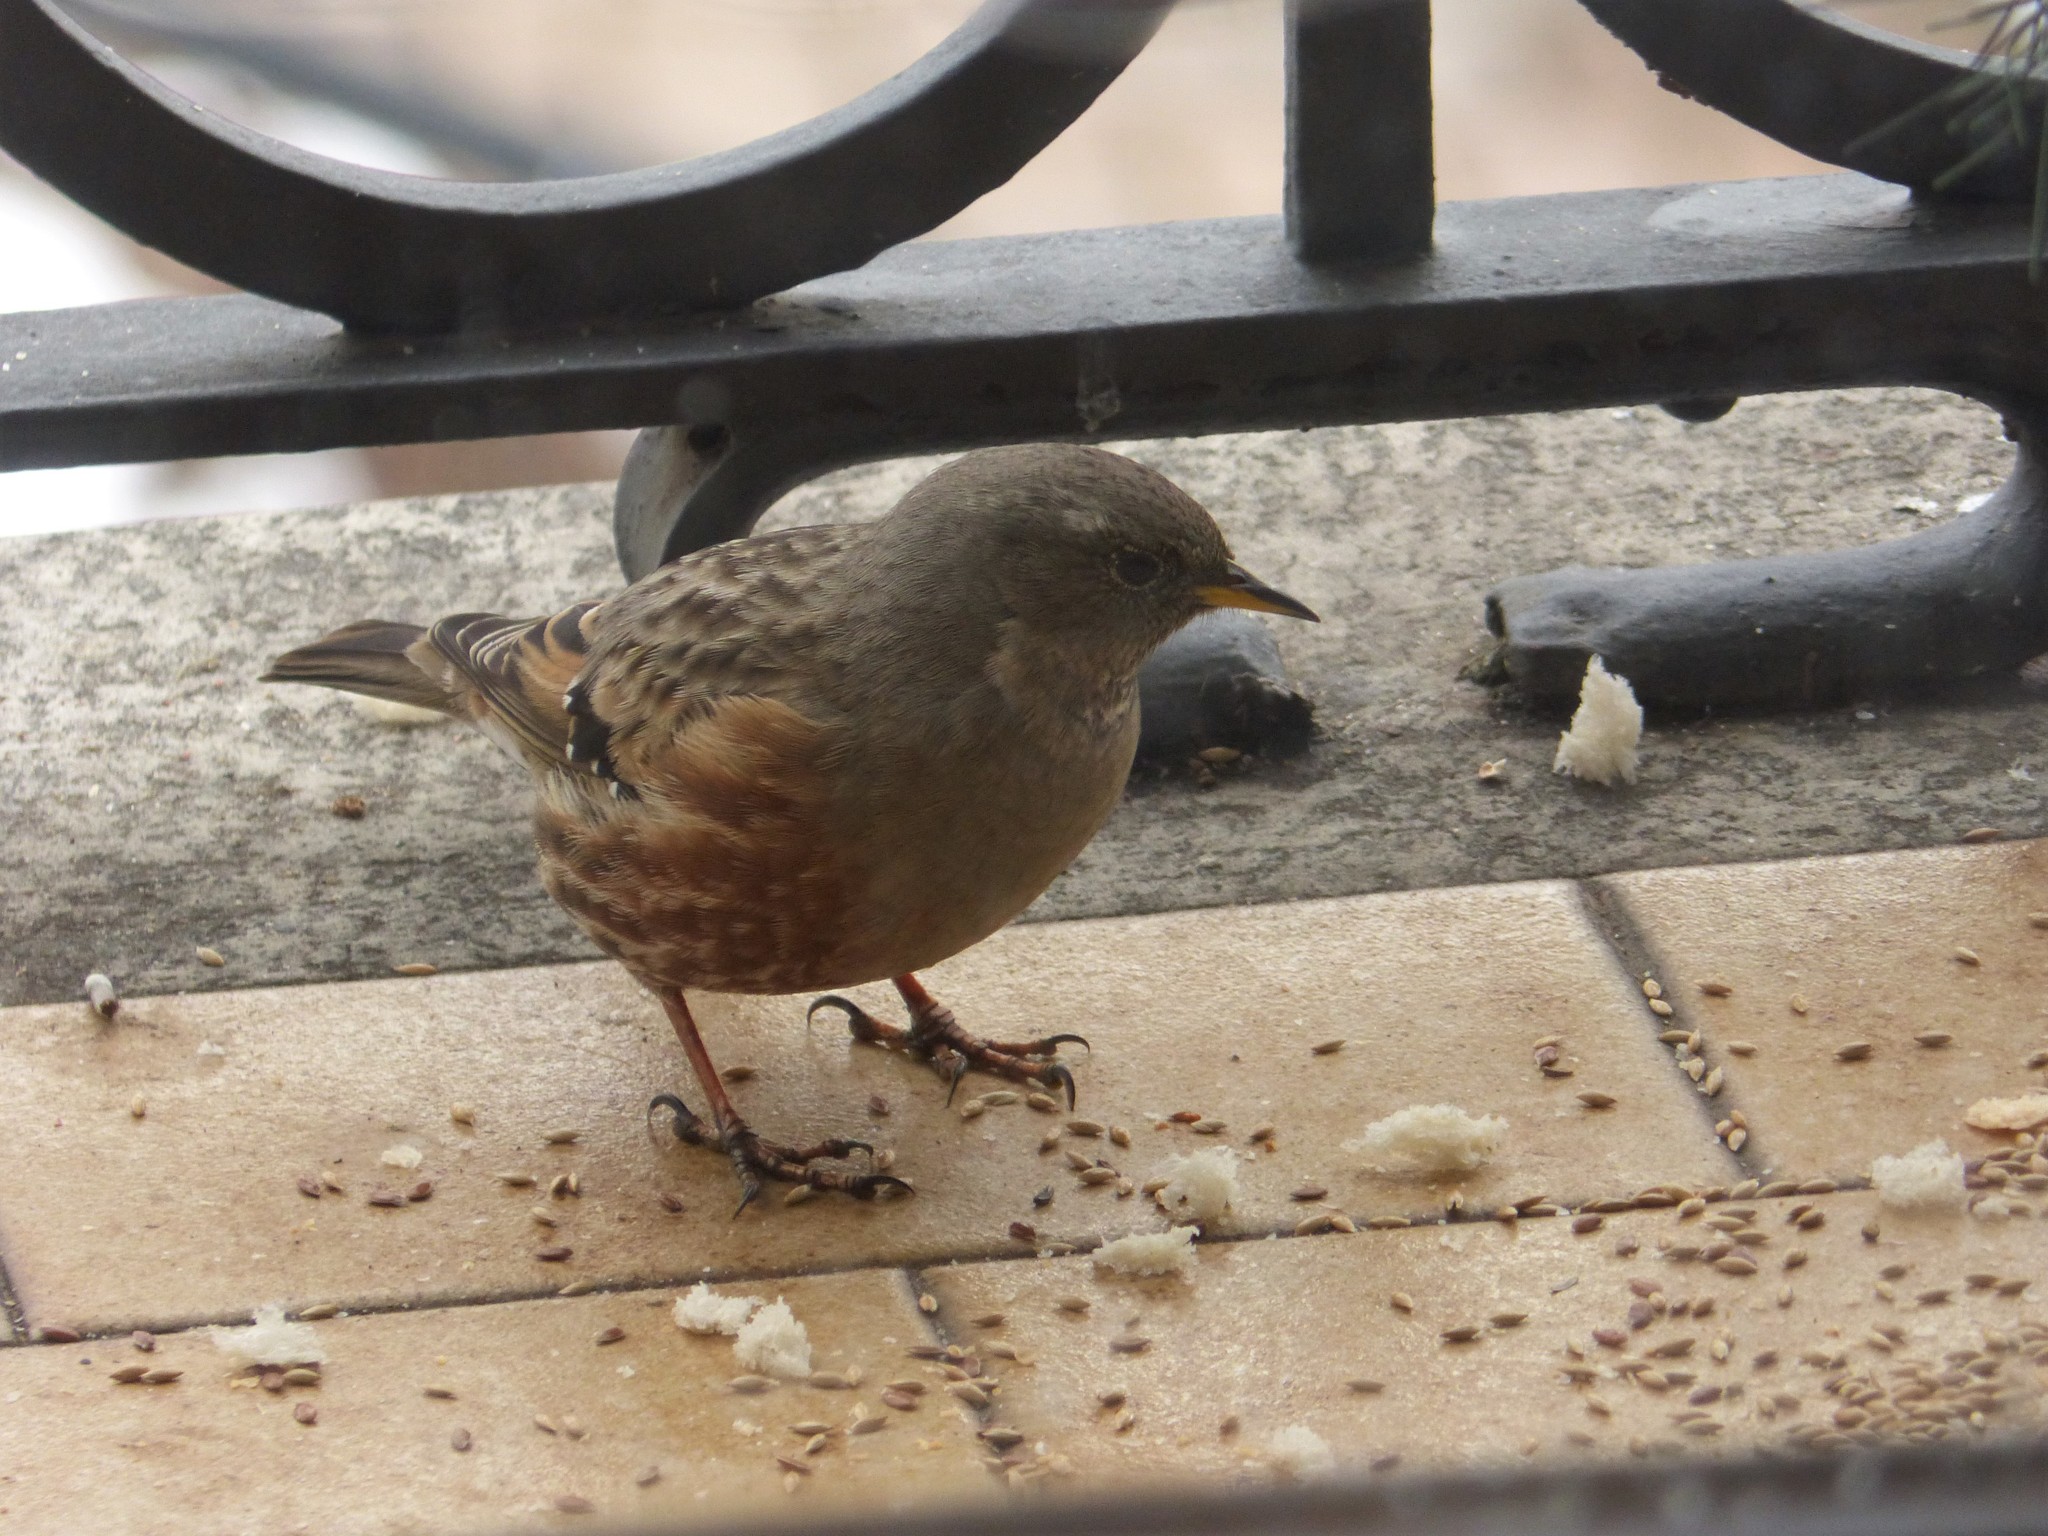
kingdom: Animalia
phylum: Chordata
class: Aves
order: Passeriformes
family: Prunellidae
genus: Prunella
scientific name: Prunella collaris
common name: Alpine accentor
